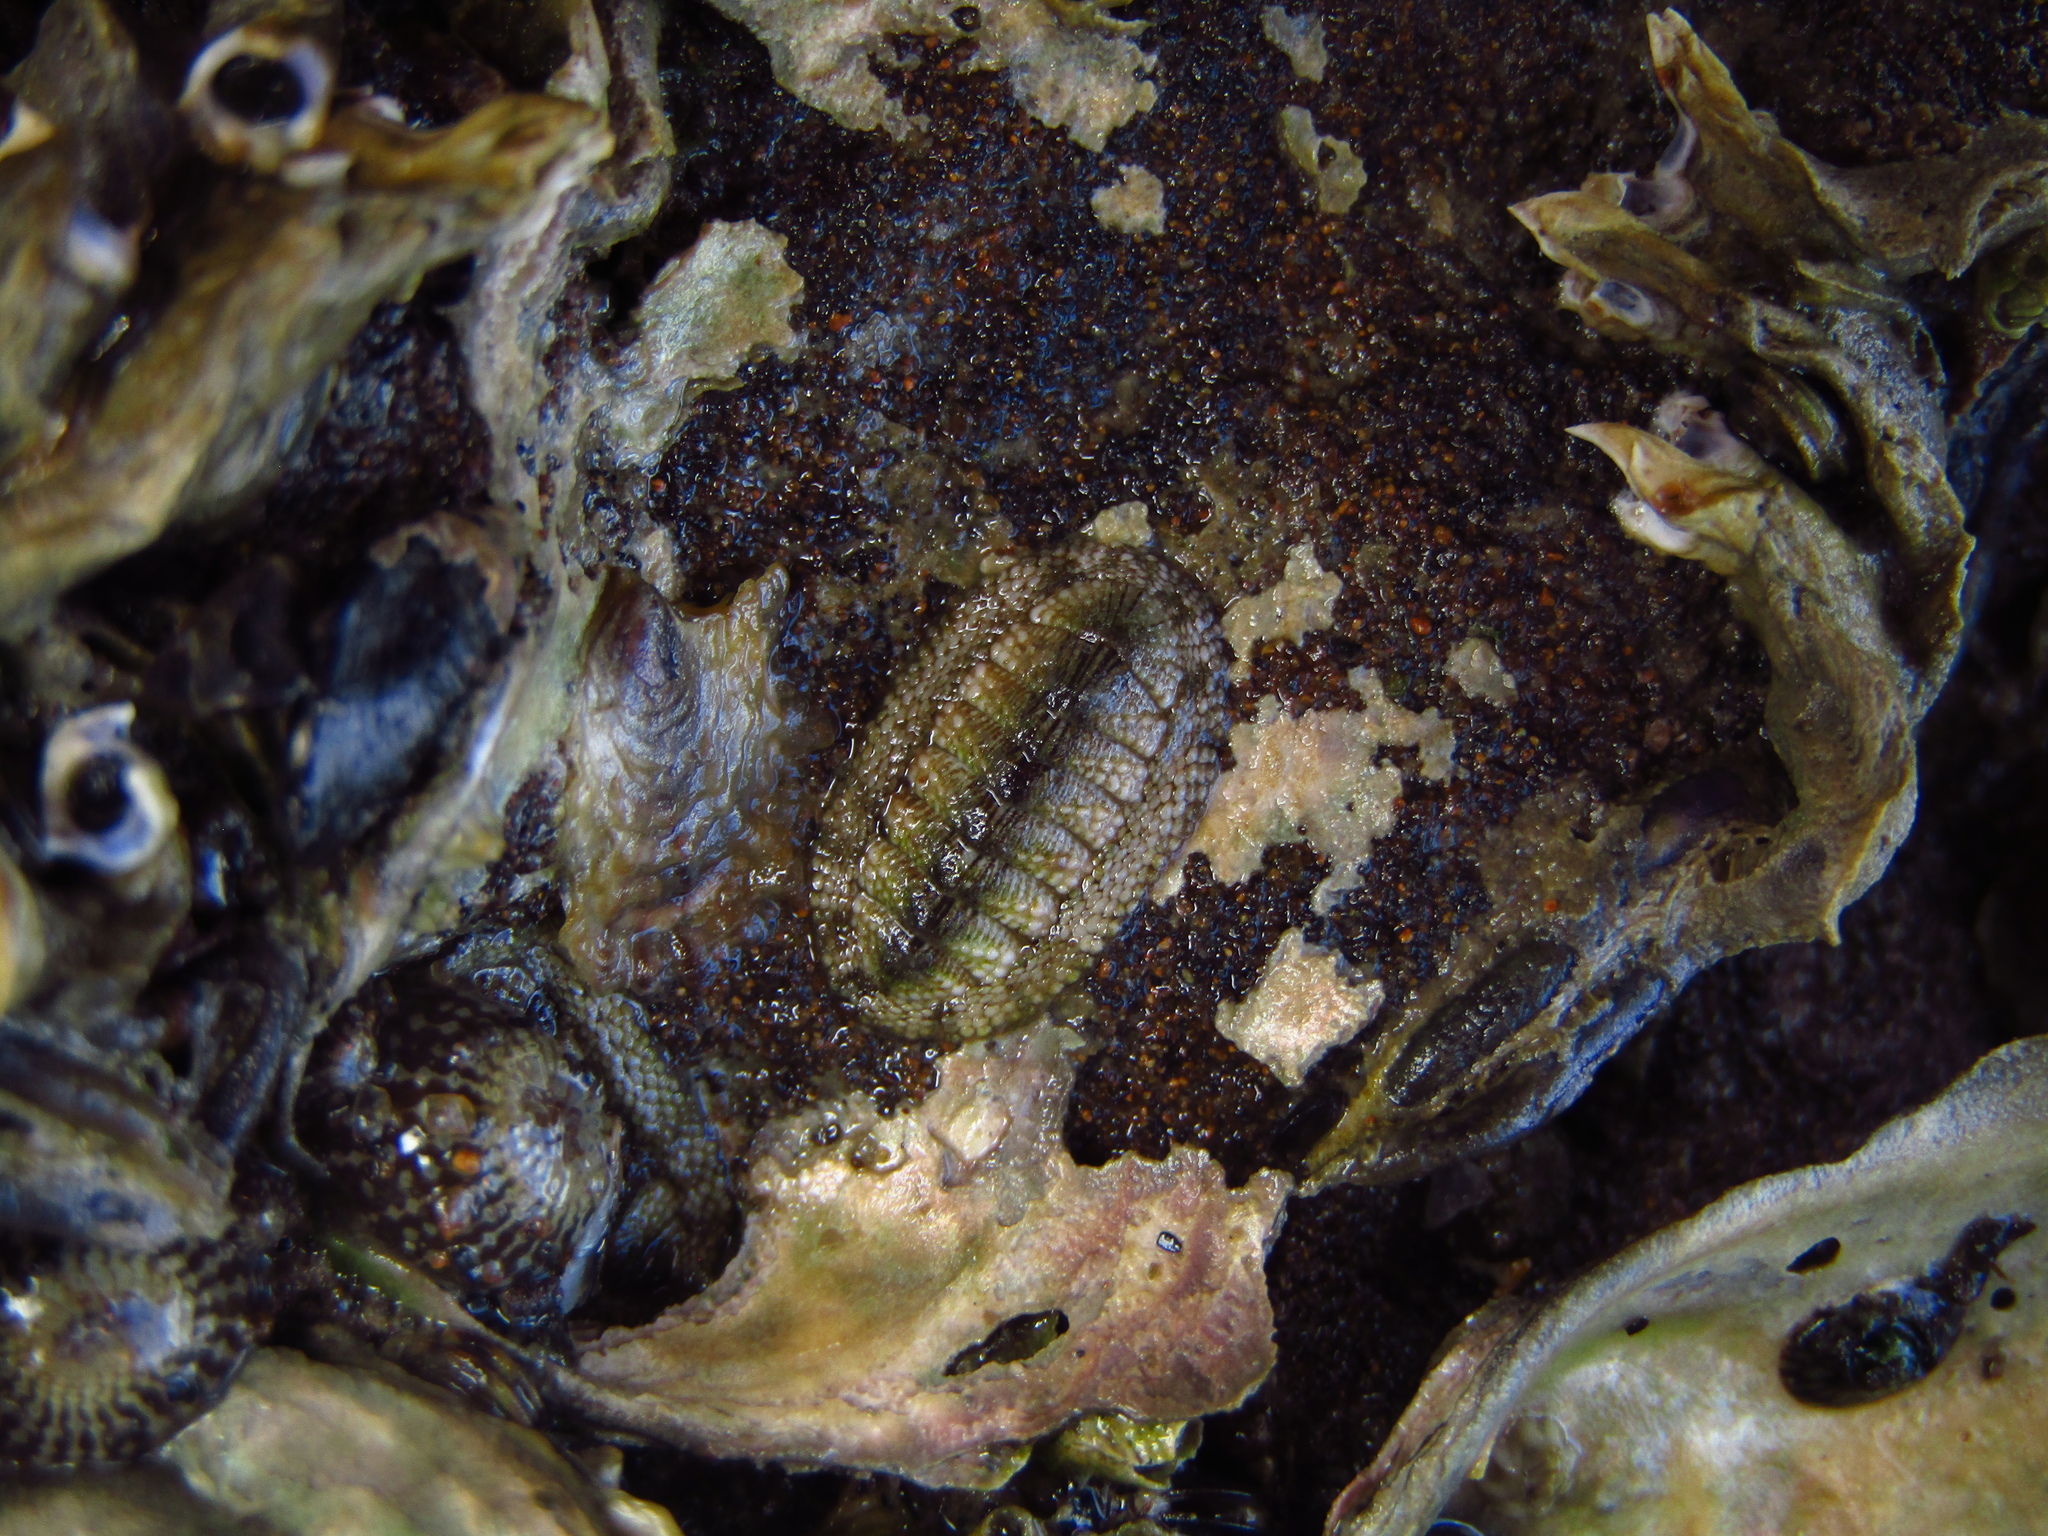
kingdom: Animalia
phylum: Mollusca
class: Polyplacophora
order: Chitonida
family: Chitonidae
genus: Sypharochiton
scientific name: Sypharochiton pelliserpentis
